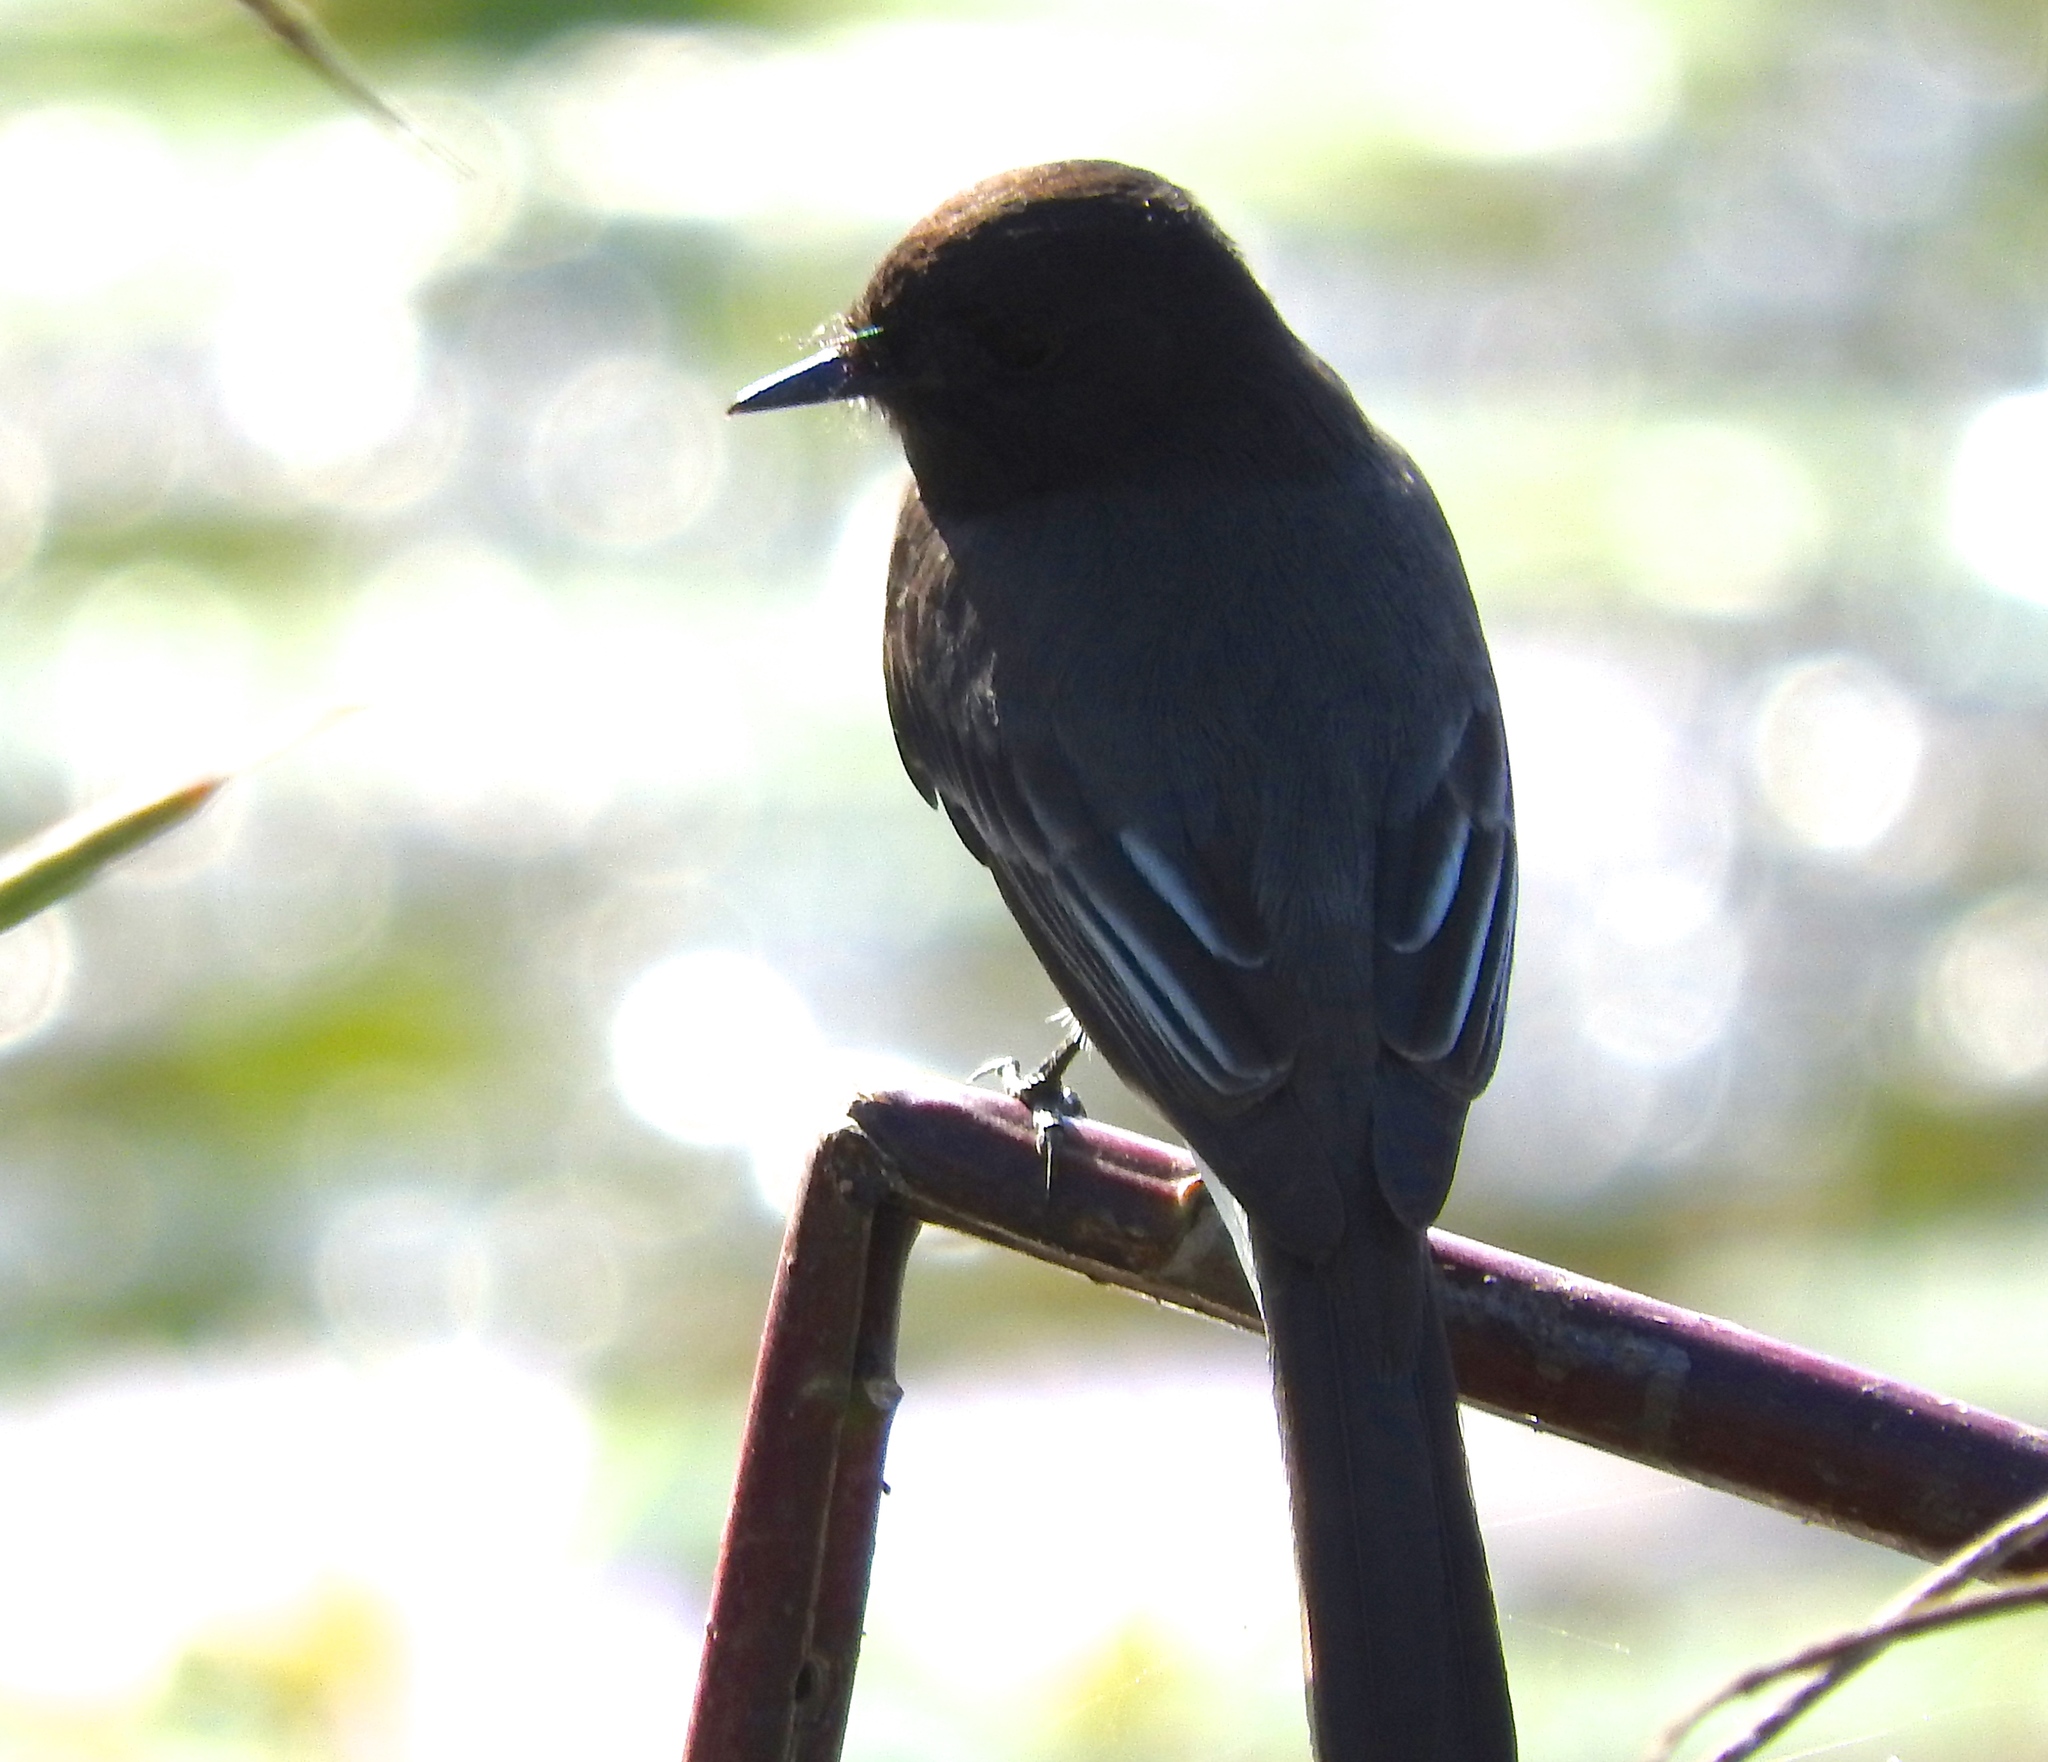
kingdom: Animalia
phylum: Chordata
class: Aves
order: Passeriformes
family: Tyrannidae
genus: Sayornis
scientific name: Sayornis nigricans
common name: Black phoebe
